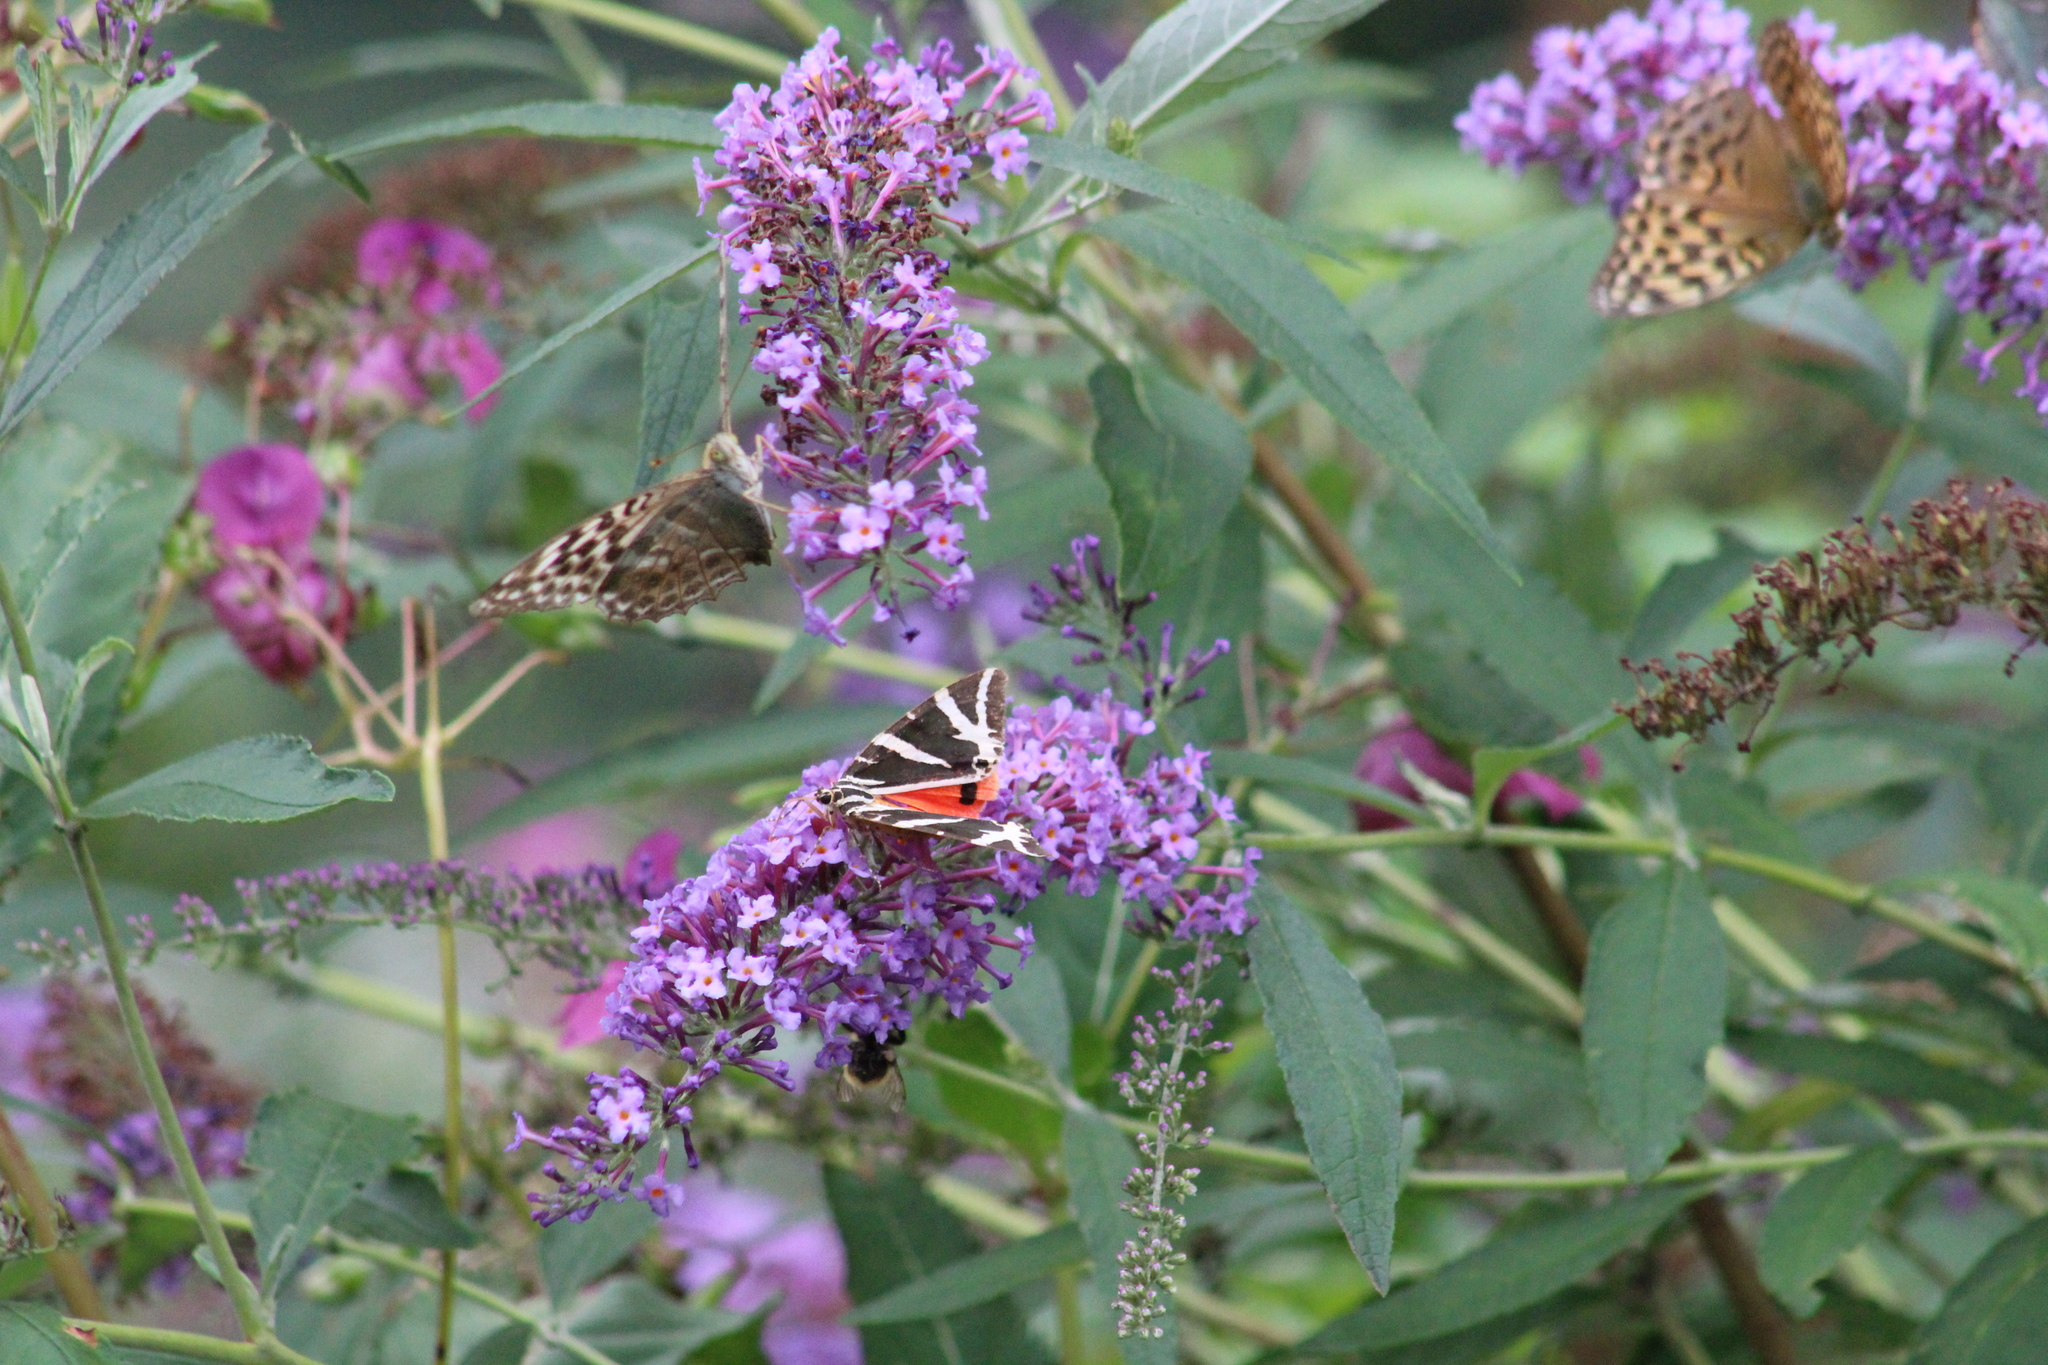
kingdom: Animalia
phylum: Arthropoda
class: Insecta
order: Lepidoptera
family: Erebidae
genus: Euplagia
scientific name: Euplagia quadripunctaria
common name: Jersey tiger
